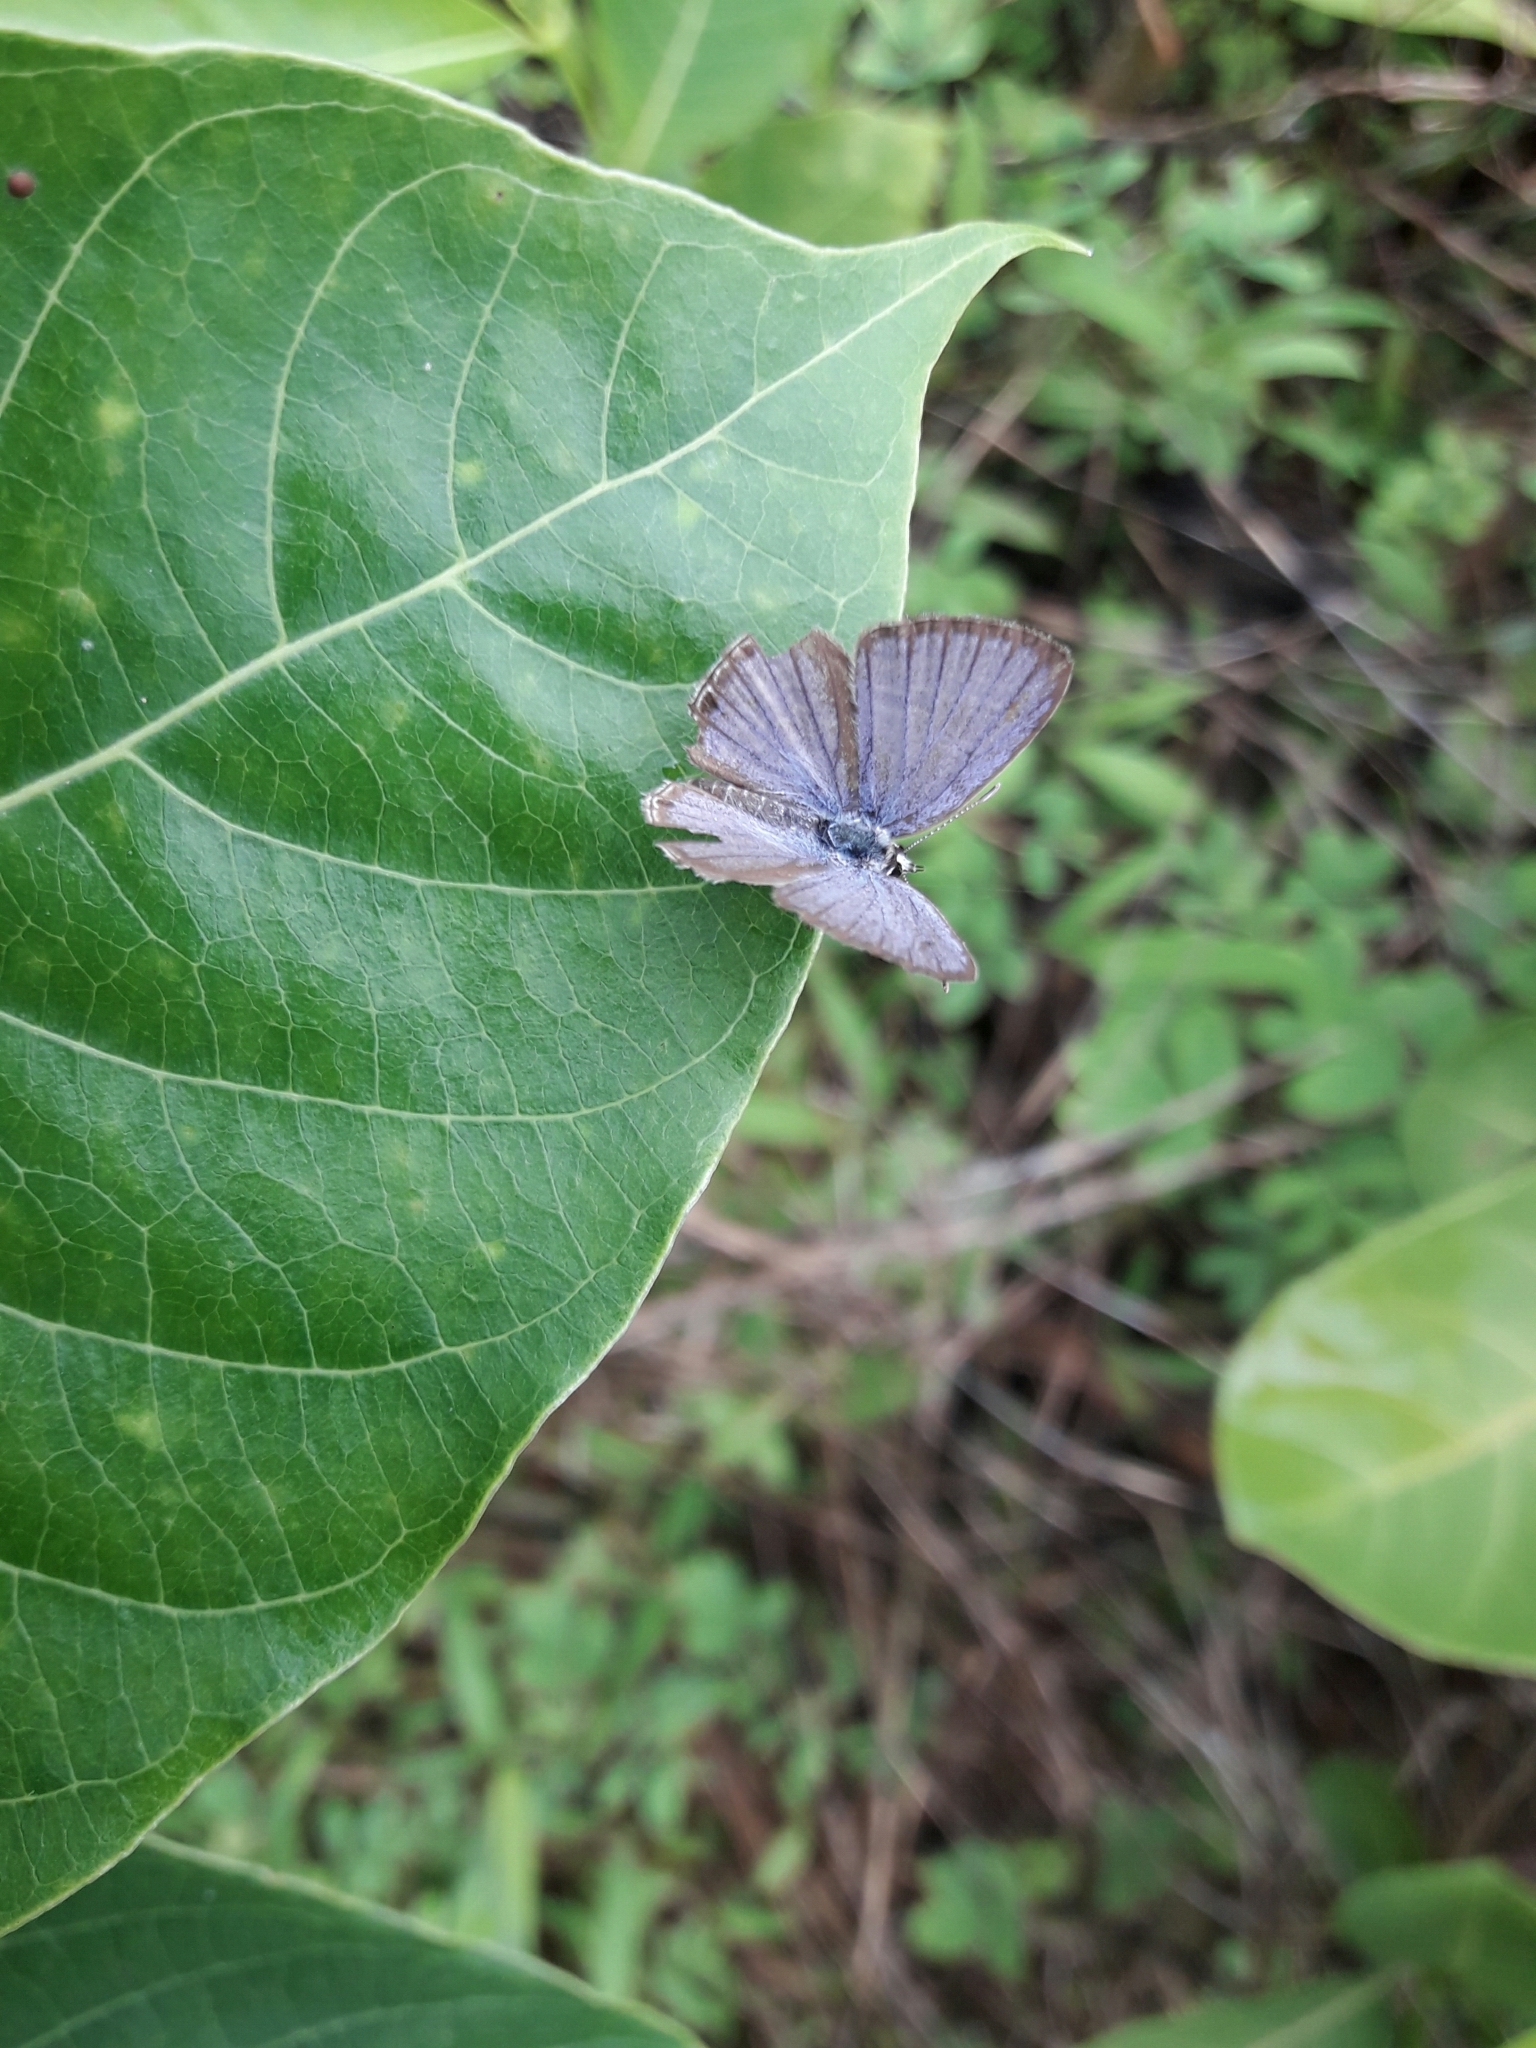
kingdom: Animalia
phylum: Arthropoda
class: Insecta
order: Lepidoptera
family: Lycaenidae
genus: Luthrodes
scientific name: Luthrodes pandava
